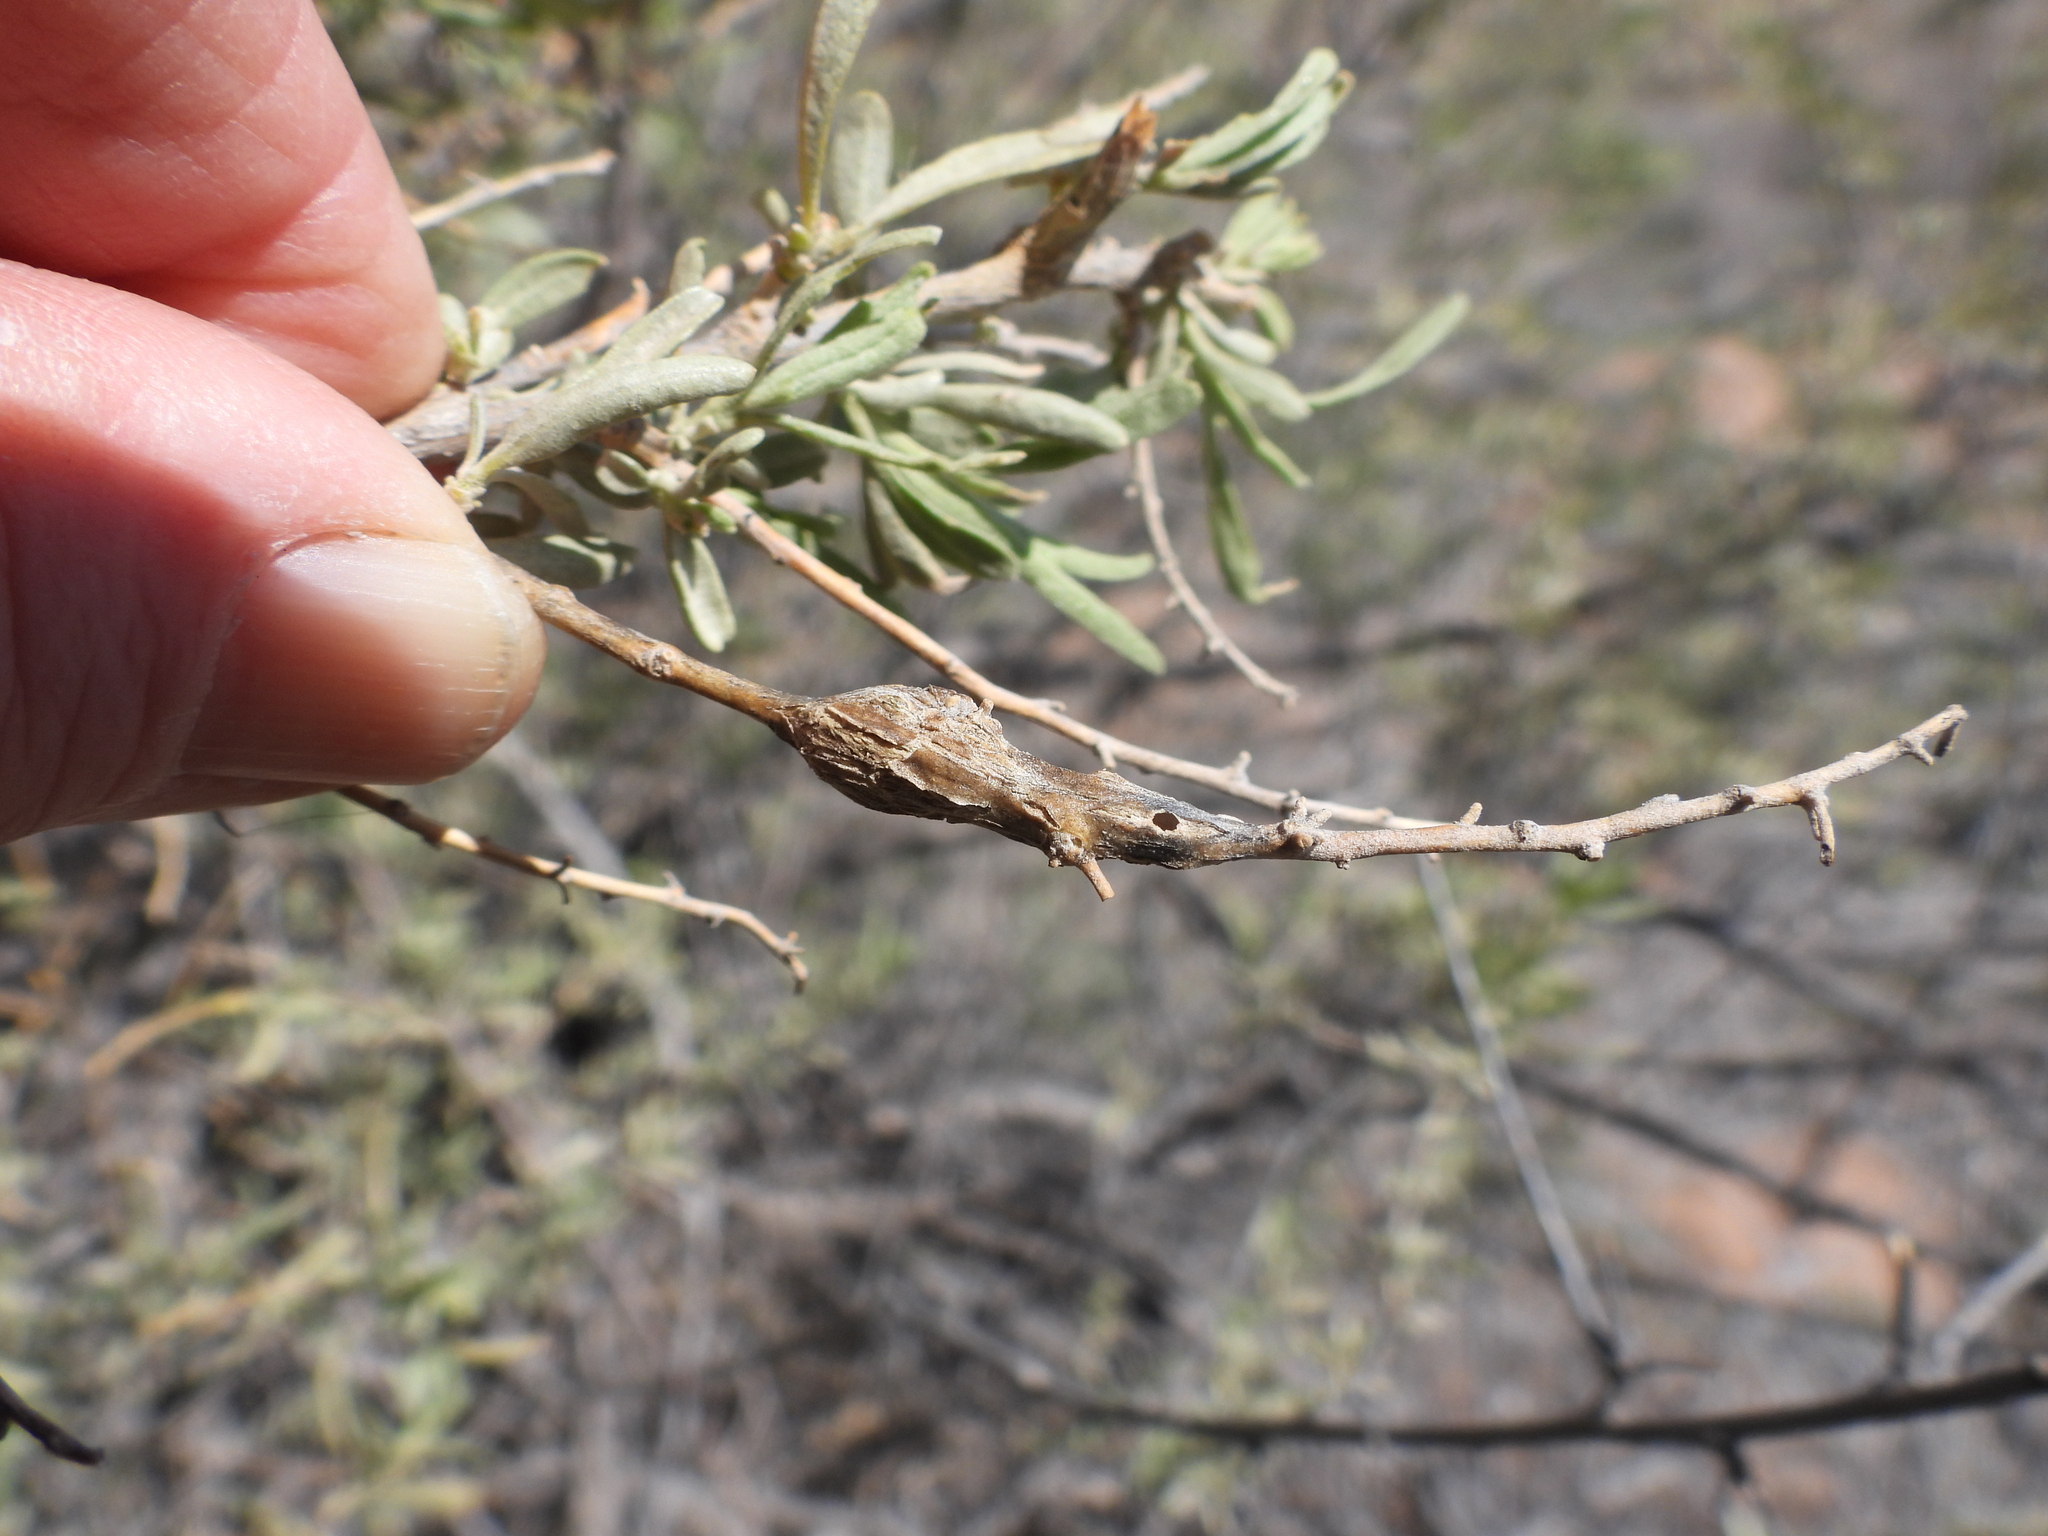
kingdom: Animalia
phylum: Arthropoda
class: Insecta
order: Diptera
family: Cecidomyiidae
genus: Neolasioptera
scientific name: Neolasioptera willistoni
